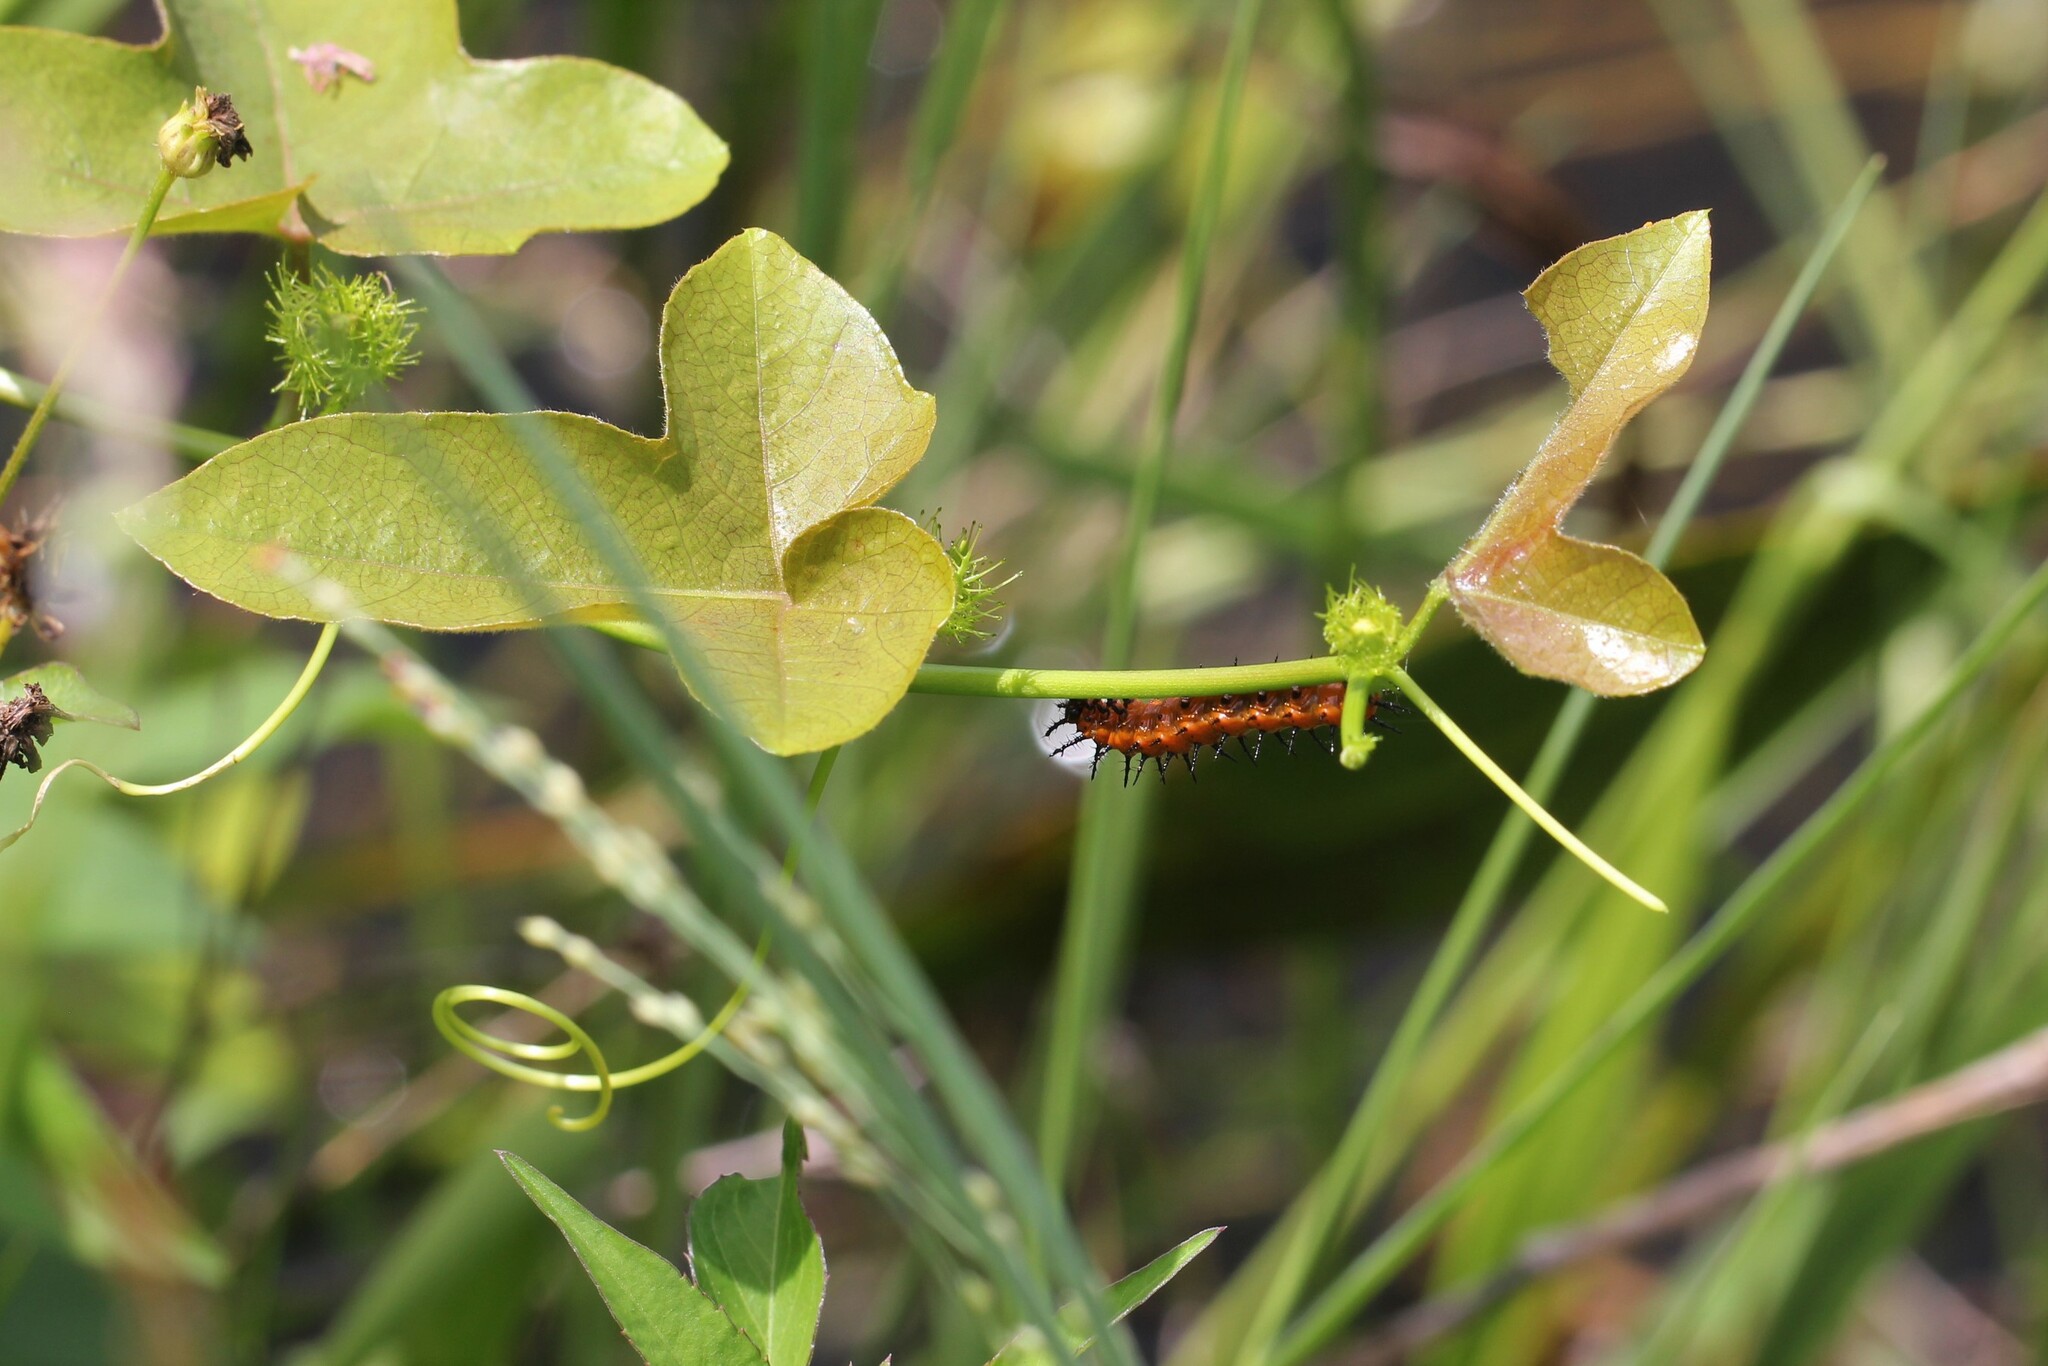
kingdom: Plantae
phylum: Tracheophyta
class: Magnoliopsida
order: Malpighiales
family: Passifloraceae
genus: Passiflora
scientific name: Passiflora ciliata
